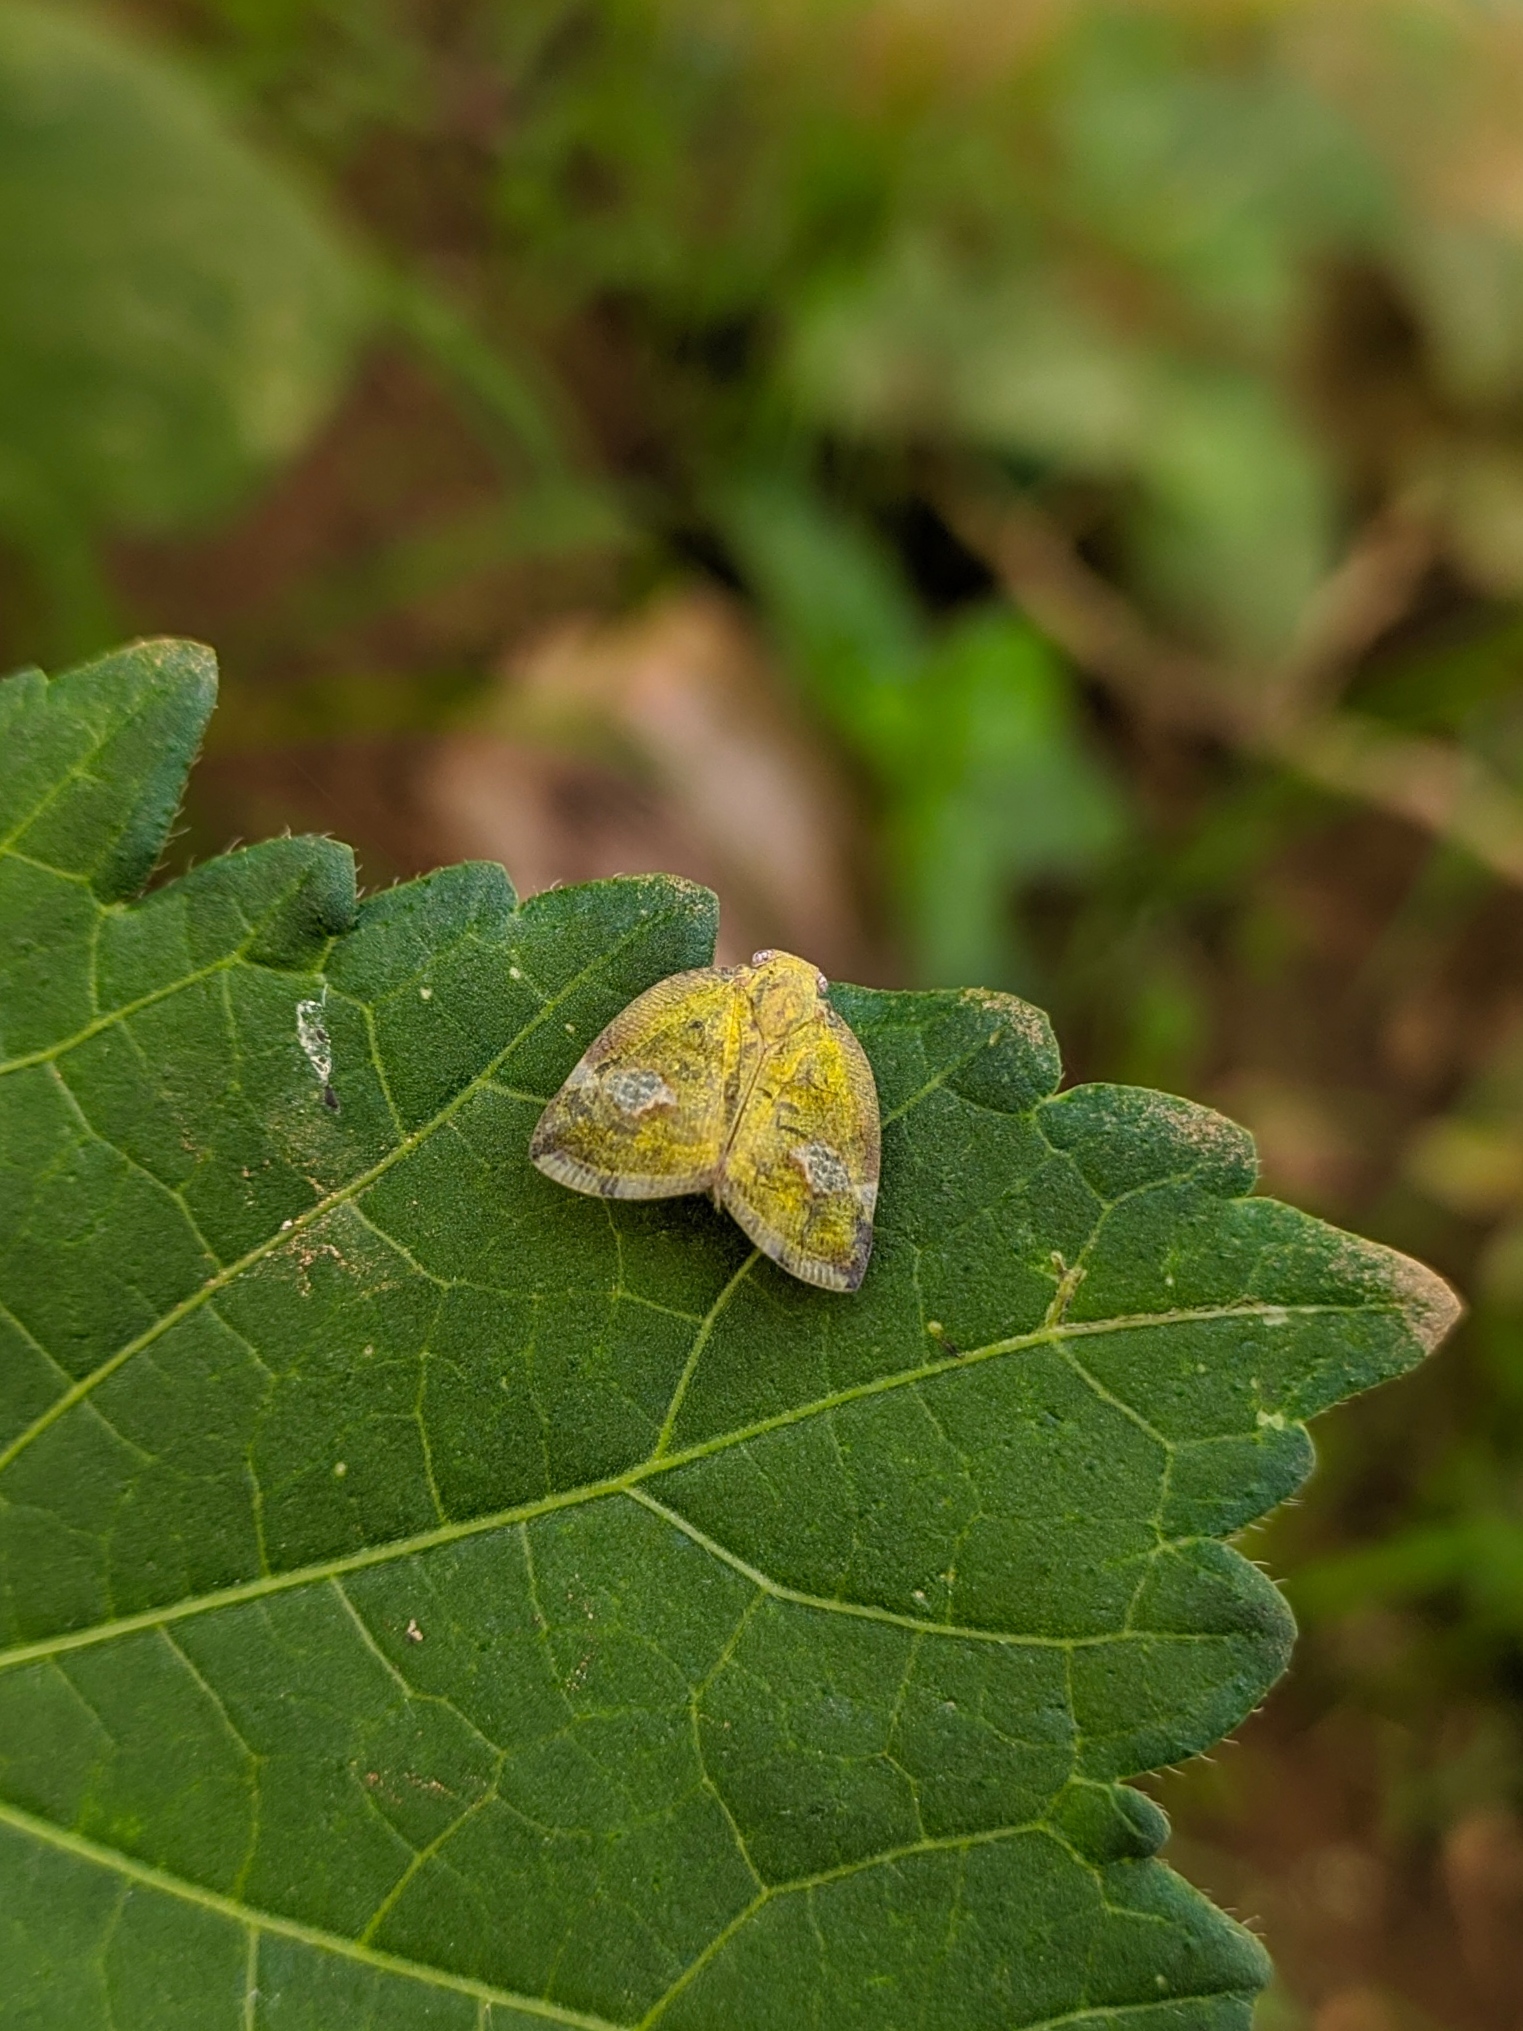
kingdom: Animalia
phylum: Arthropoda
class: Insecta
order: Hemiptera
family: Ricaniidae
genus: Ricania
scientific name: Ricania fenestrata
